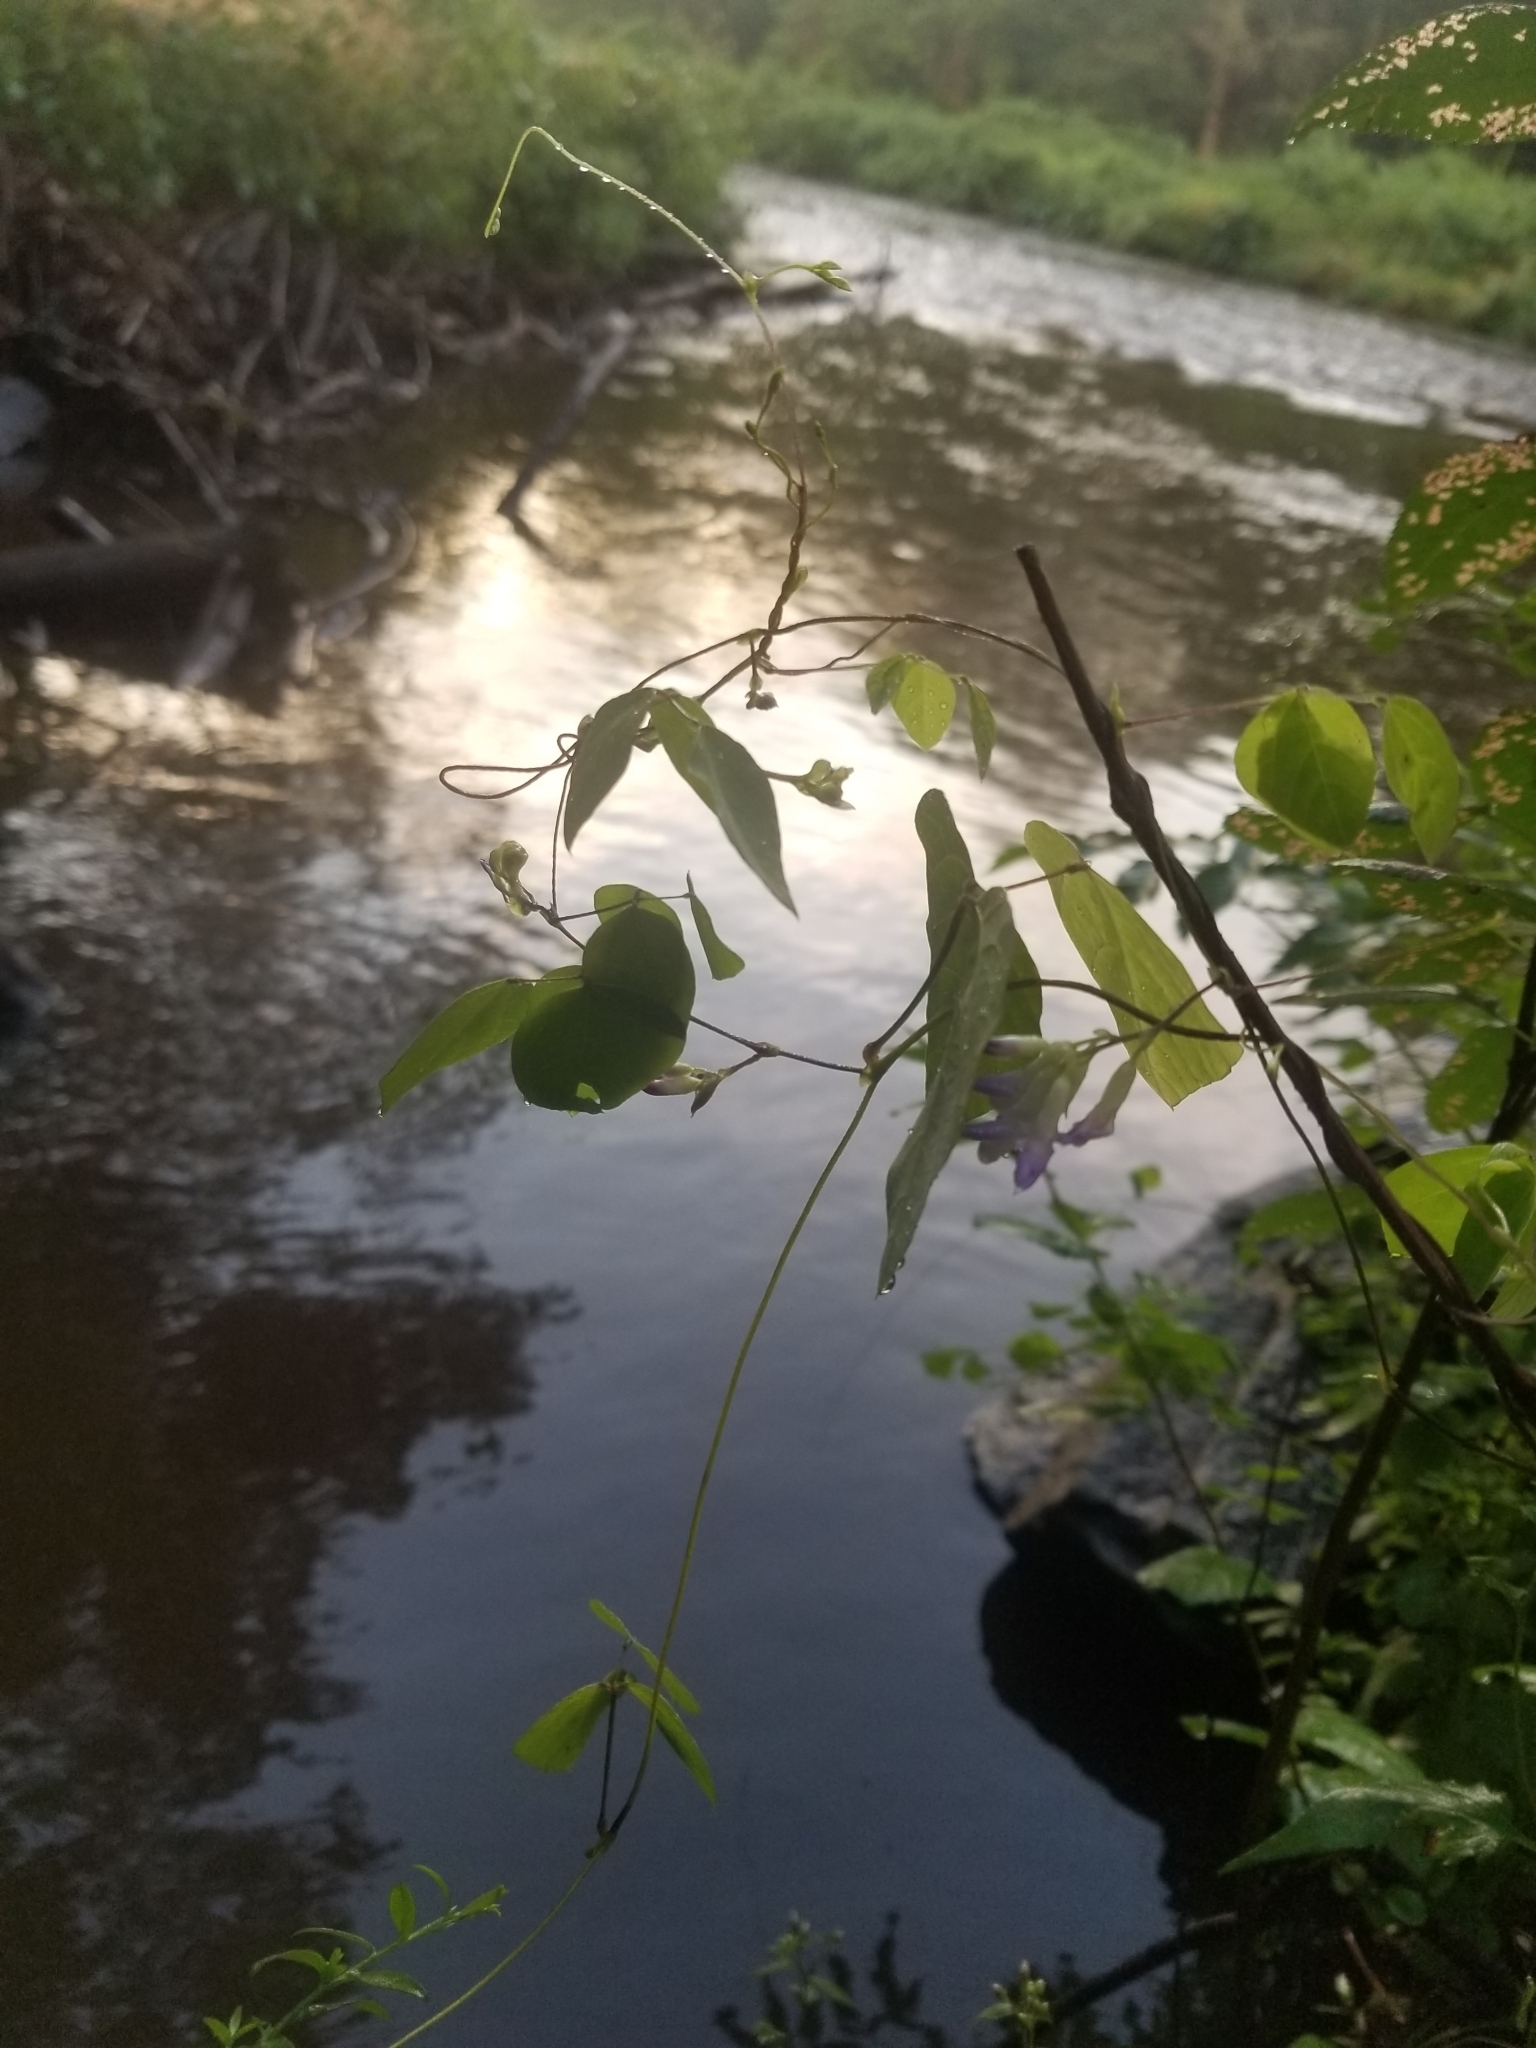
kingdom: Plantae
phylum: Tracheophyta
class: Magnoliopsida
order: Fabales
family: Fabaceae
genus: Amphicarpaea
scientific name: Amphicarpaea bracteata
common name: American hog peanut
